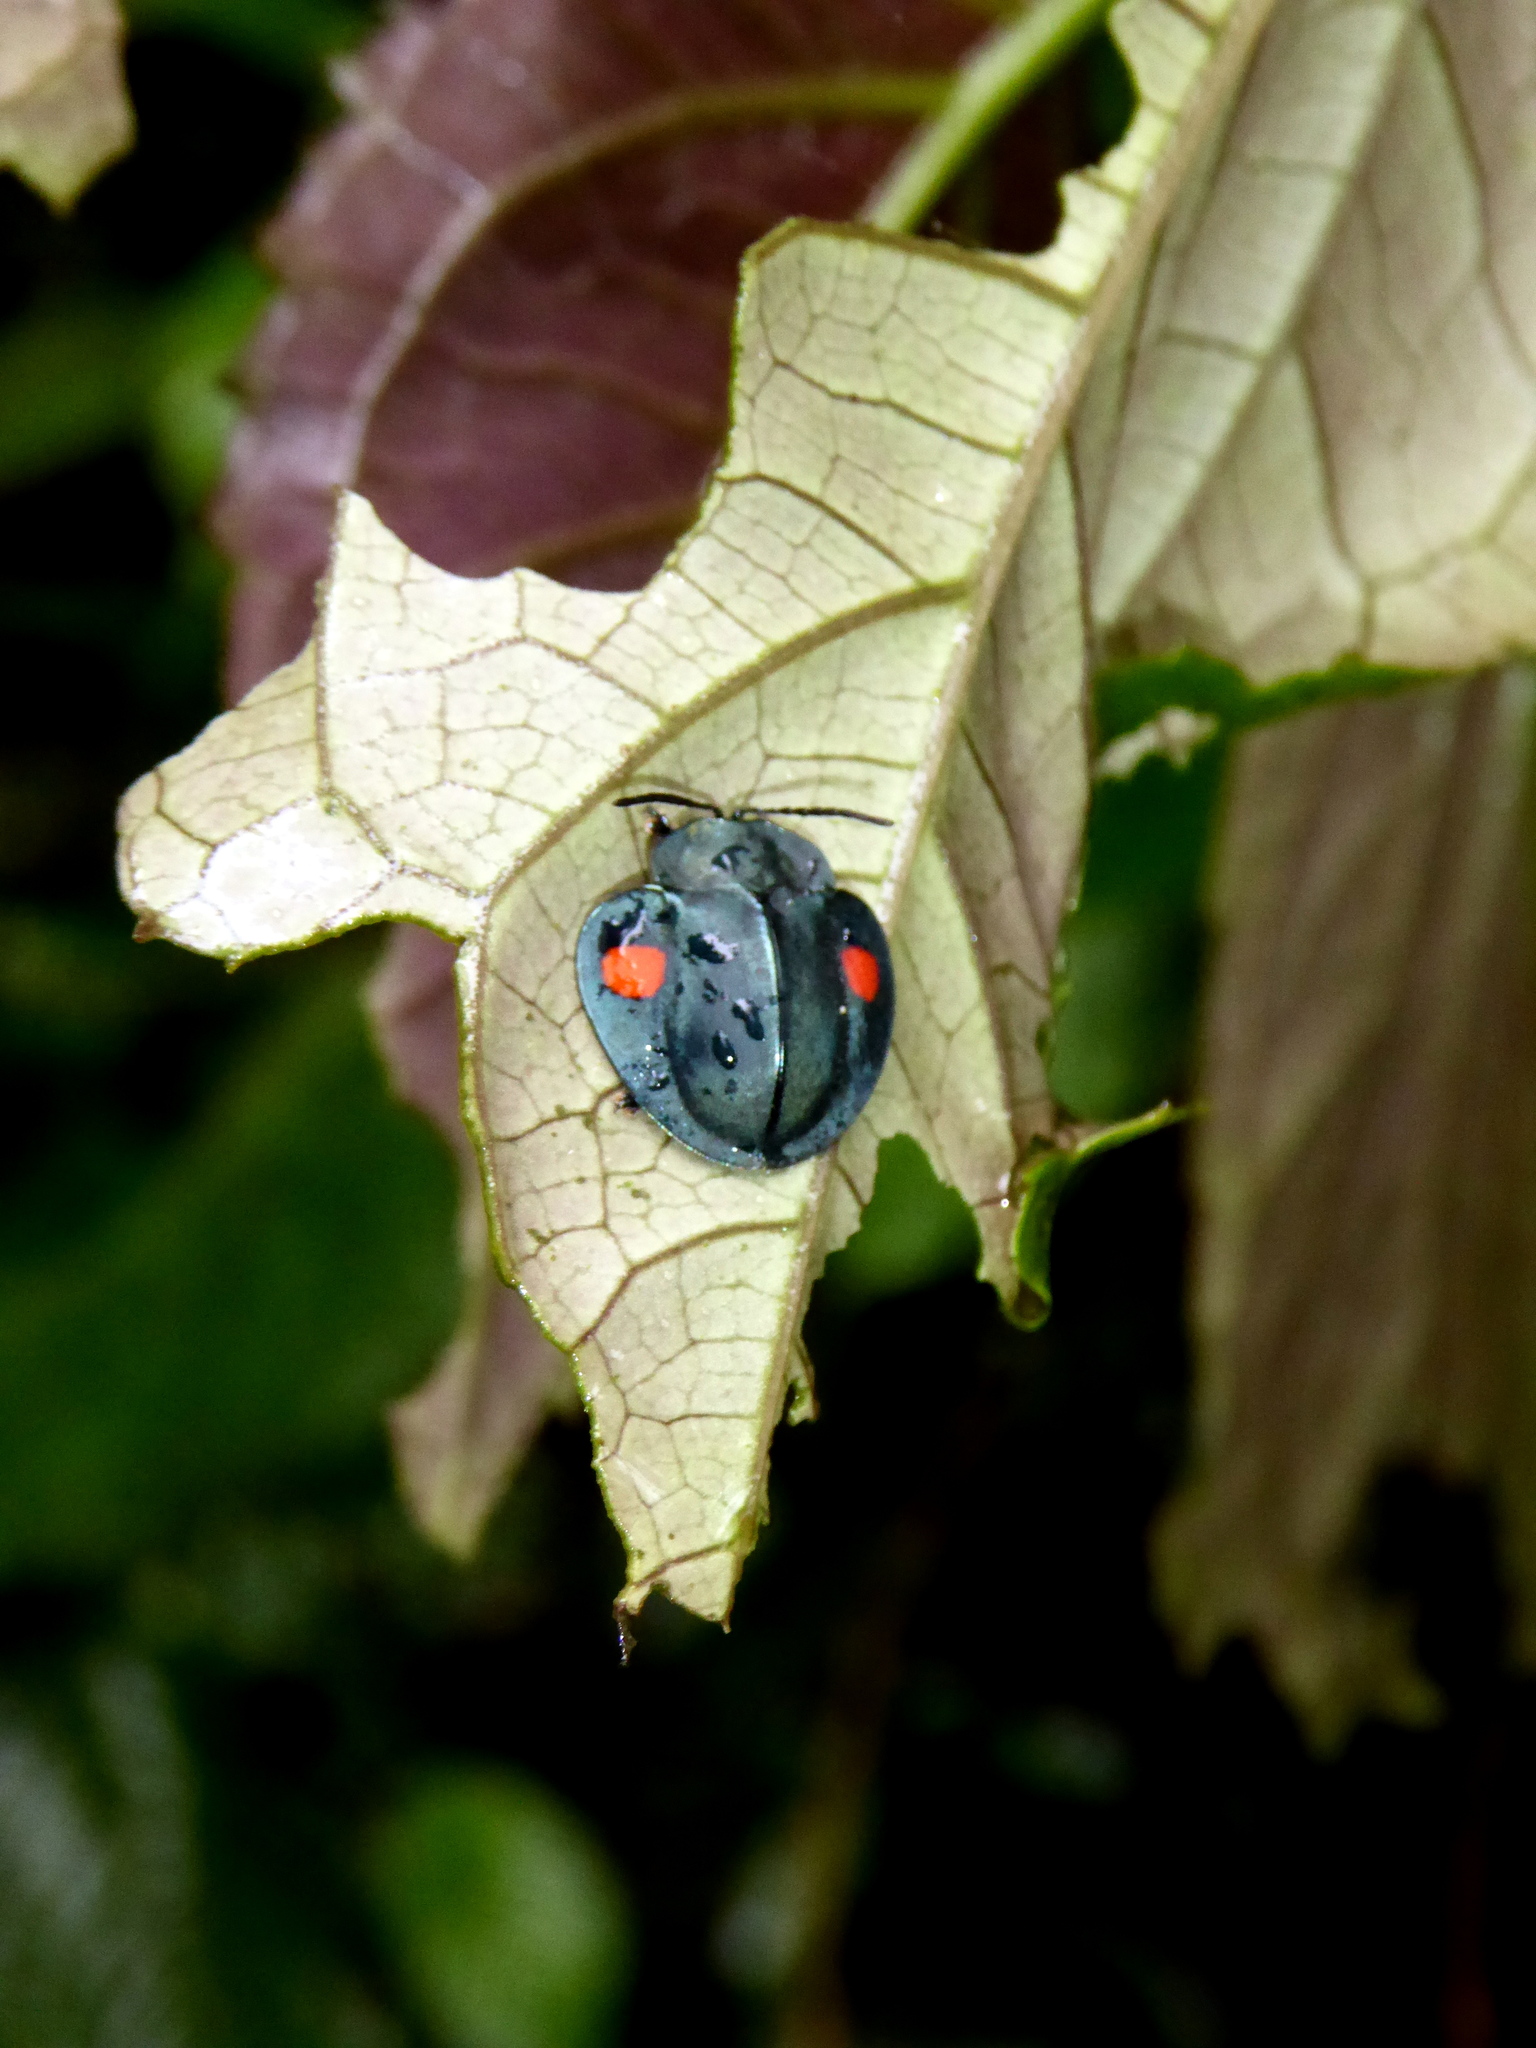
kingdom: Animalia
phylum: Arthropoda
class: Insecta
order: Coleoptera
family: Chrysomelidae
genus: Stolas
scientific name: Stolas
